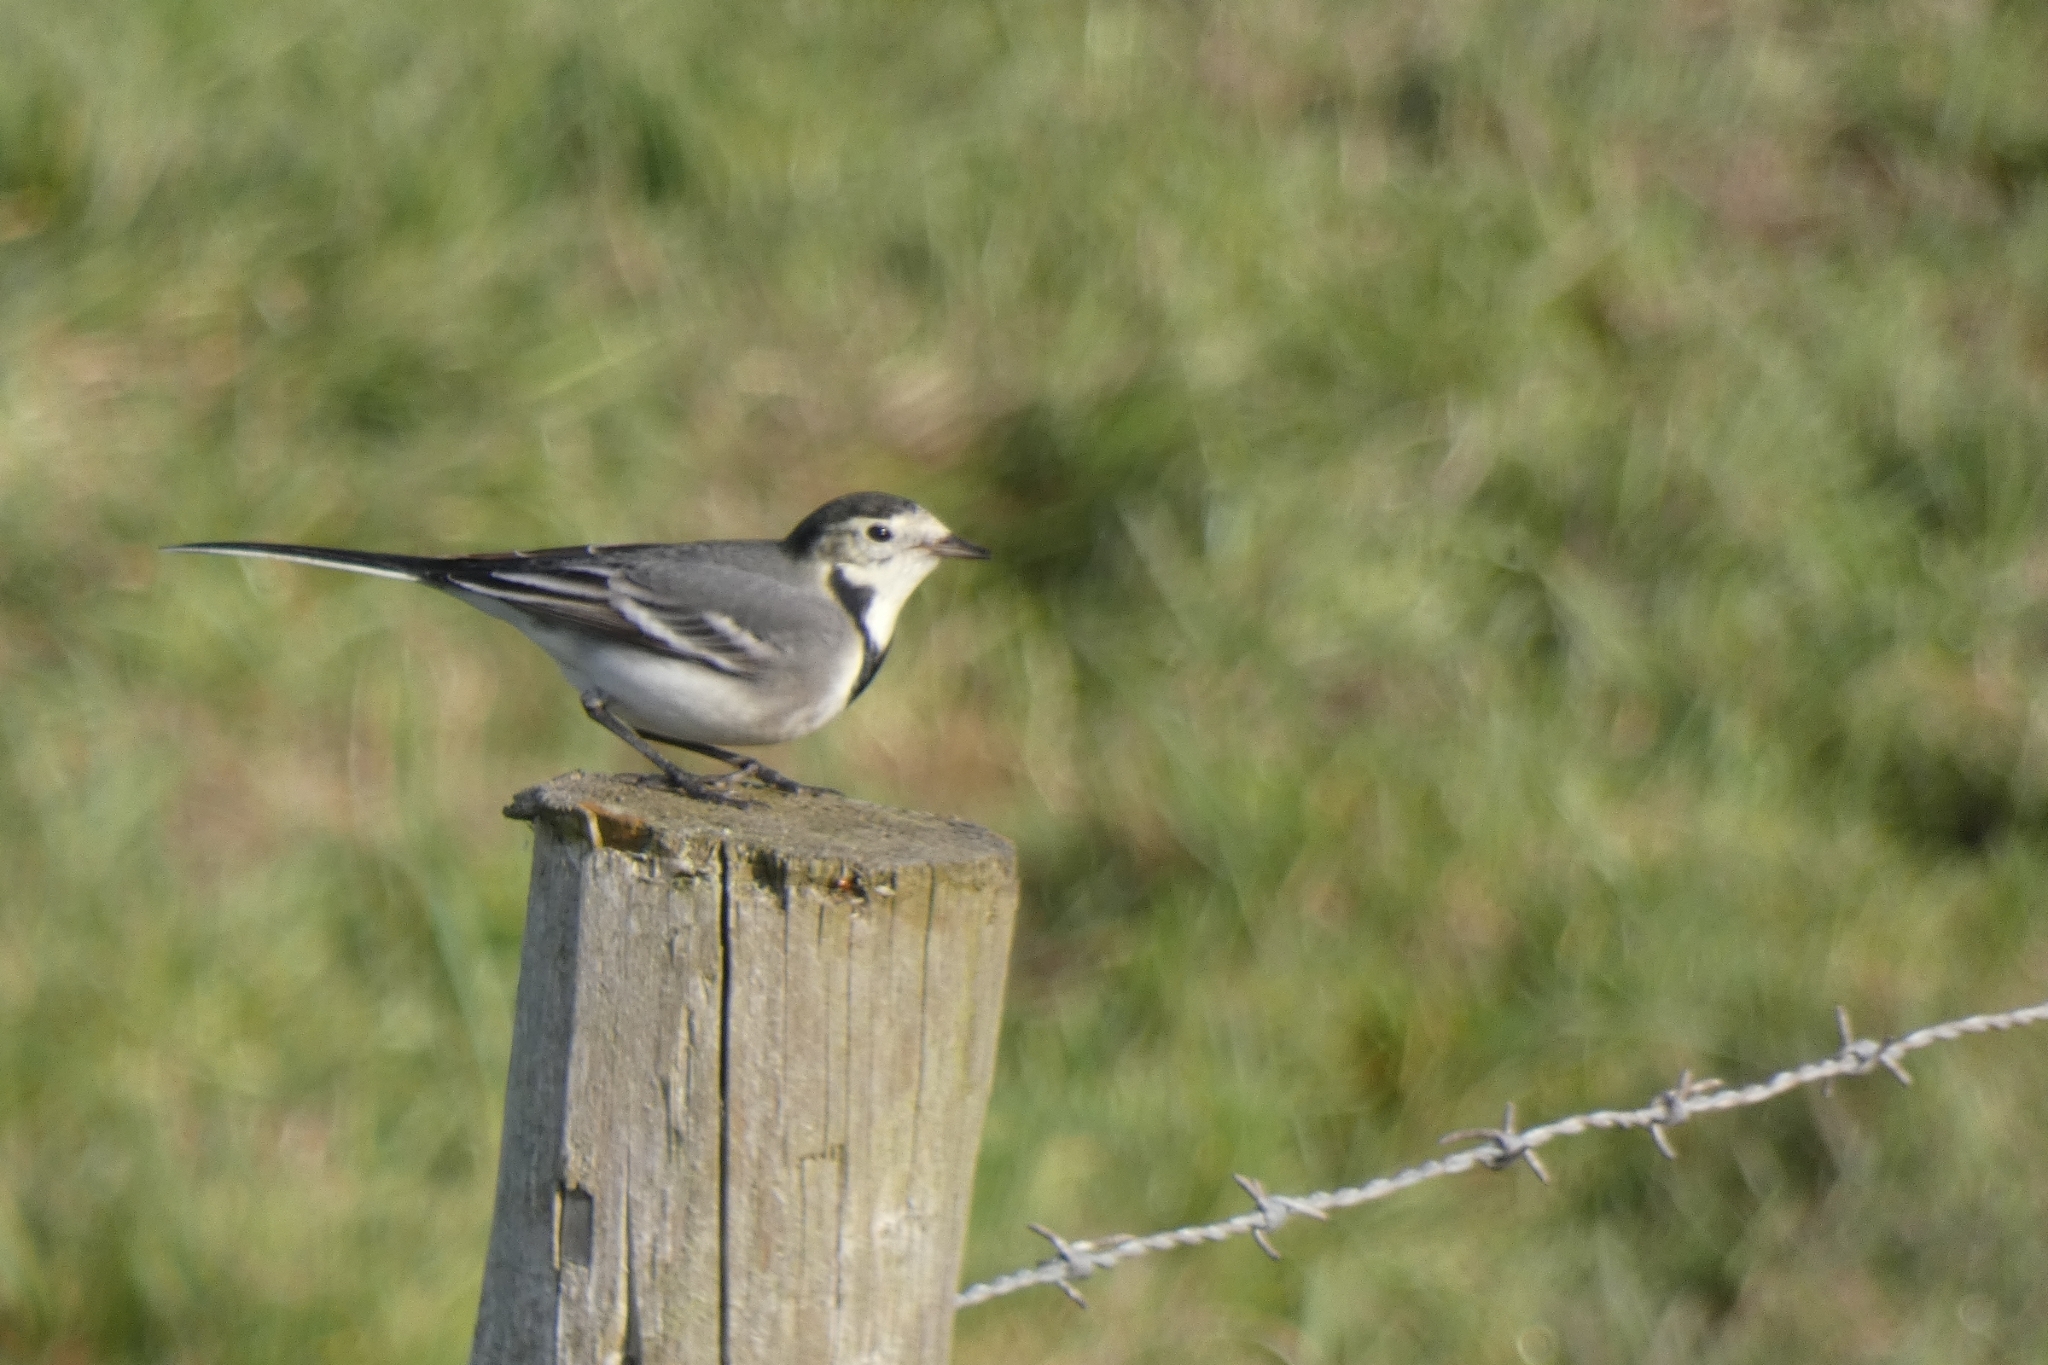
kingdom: Animalia
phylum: Chordata
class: Aves
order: Passeriformes
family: Motacillidae
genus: Motacilla
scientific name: Motacilla alba
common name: White wagtail
